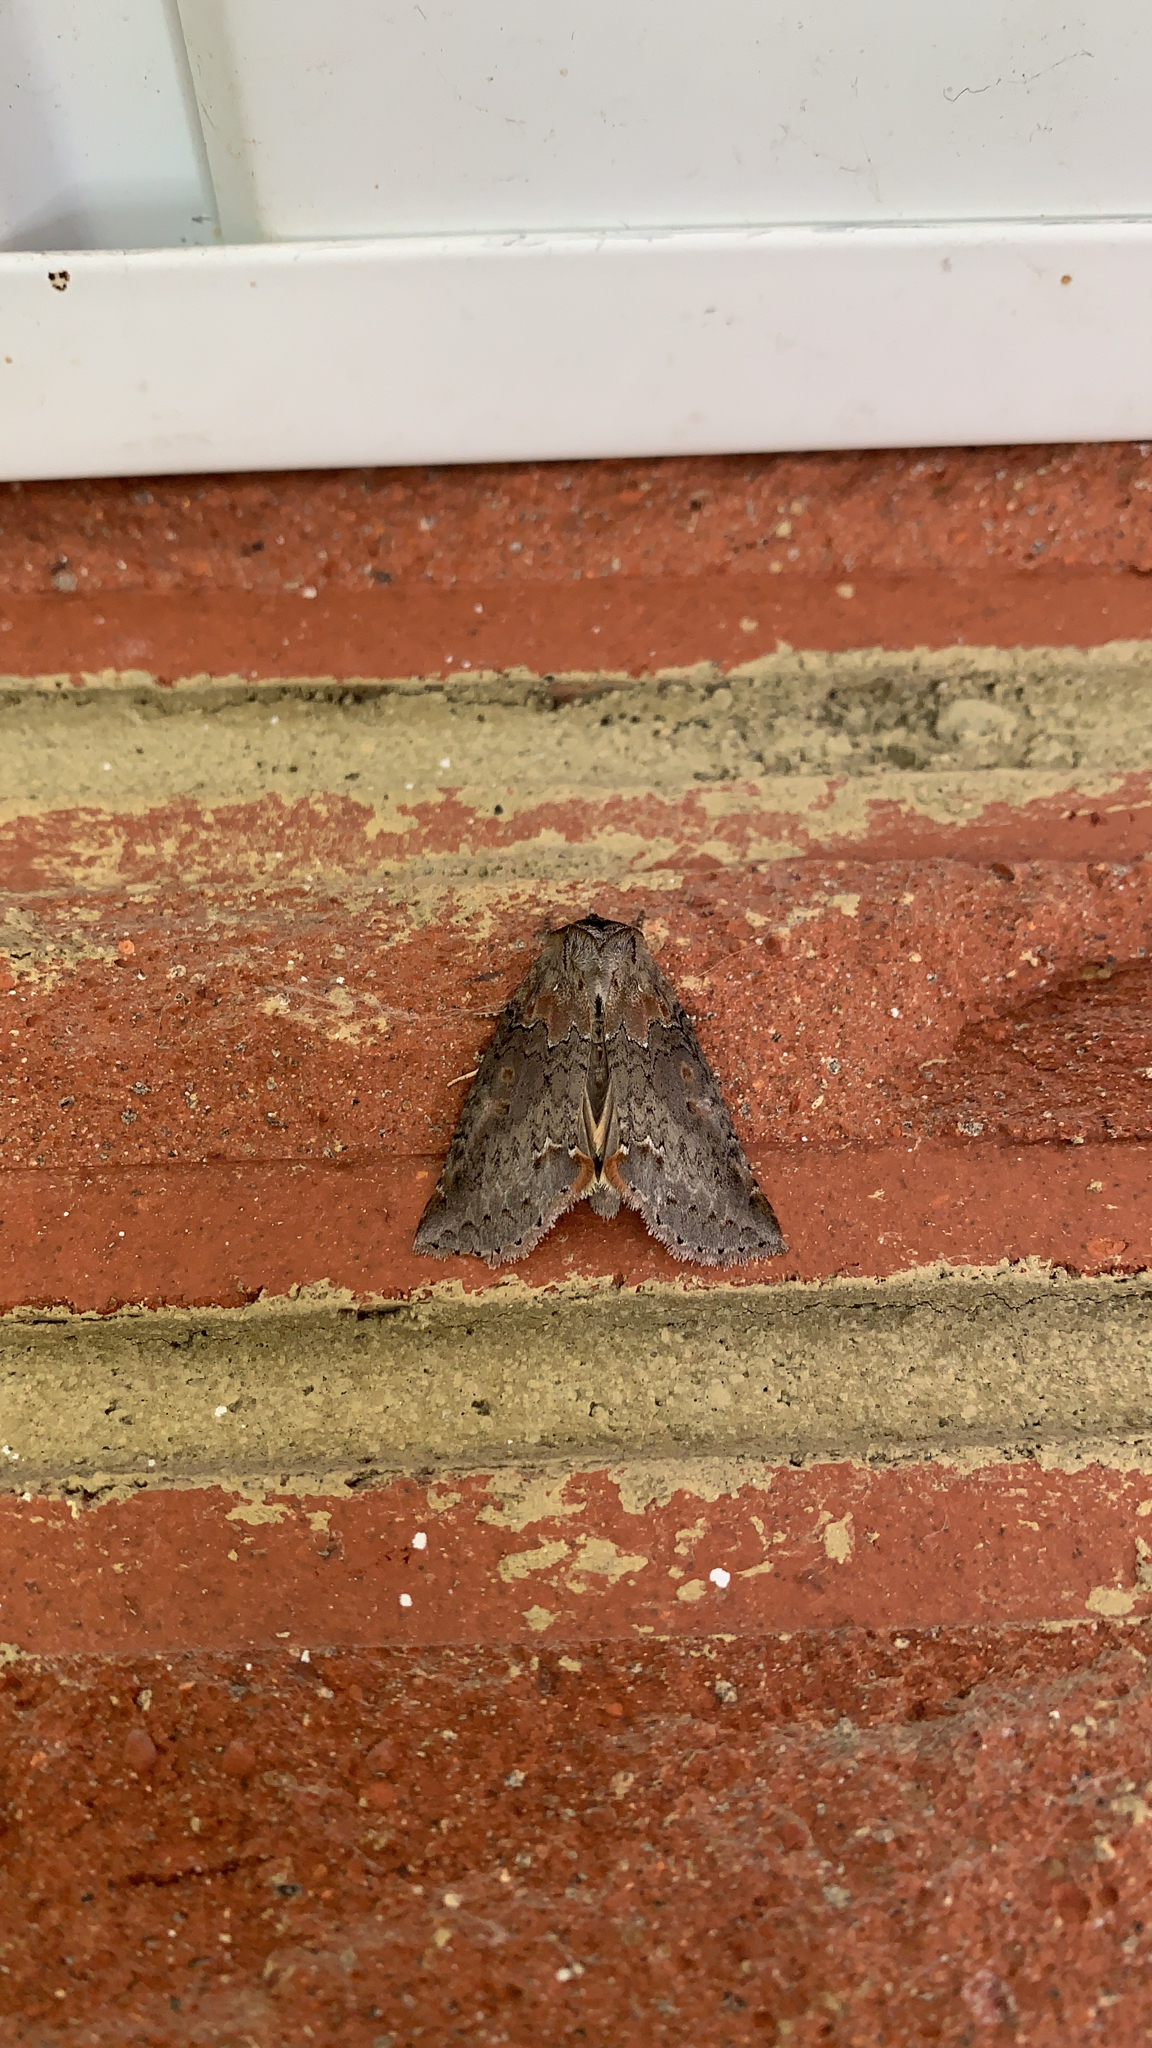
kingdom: Animalia
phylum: Arthropoda
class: Insecta
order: Lepidoptera
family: Drepanidae
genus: Pseudothyatira
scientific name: Pseudothyatira cymatophoroides
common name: Tufted thyatirid moth
